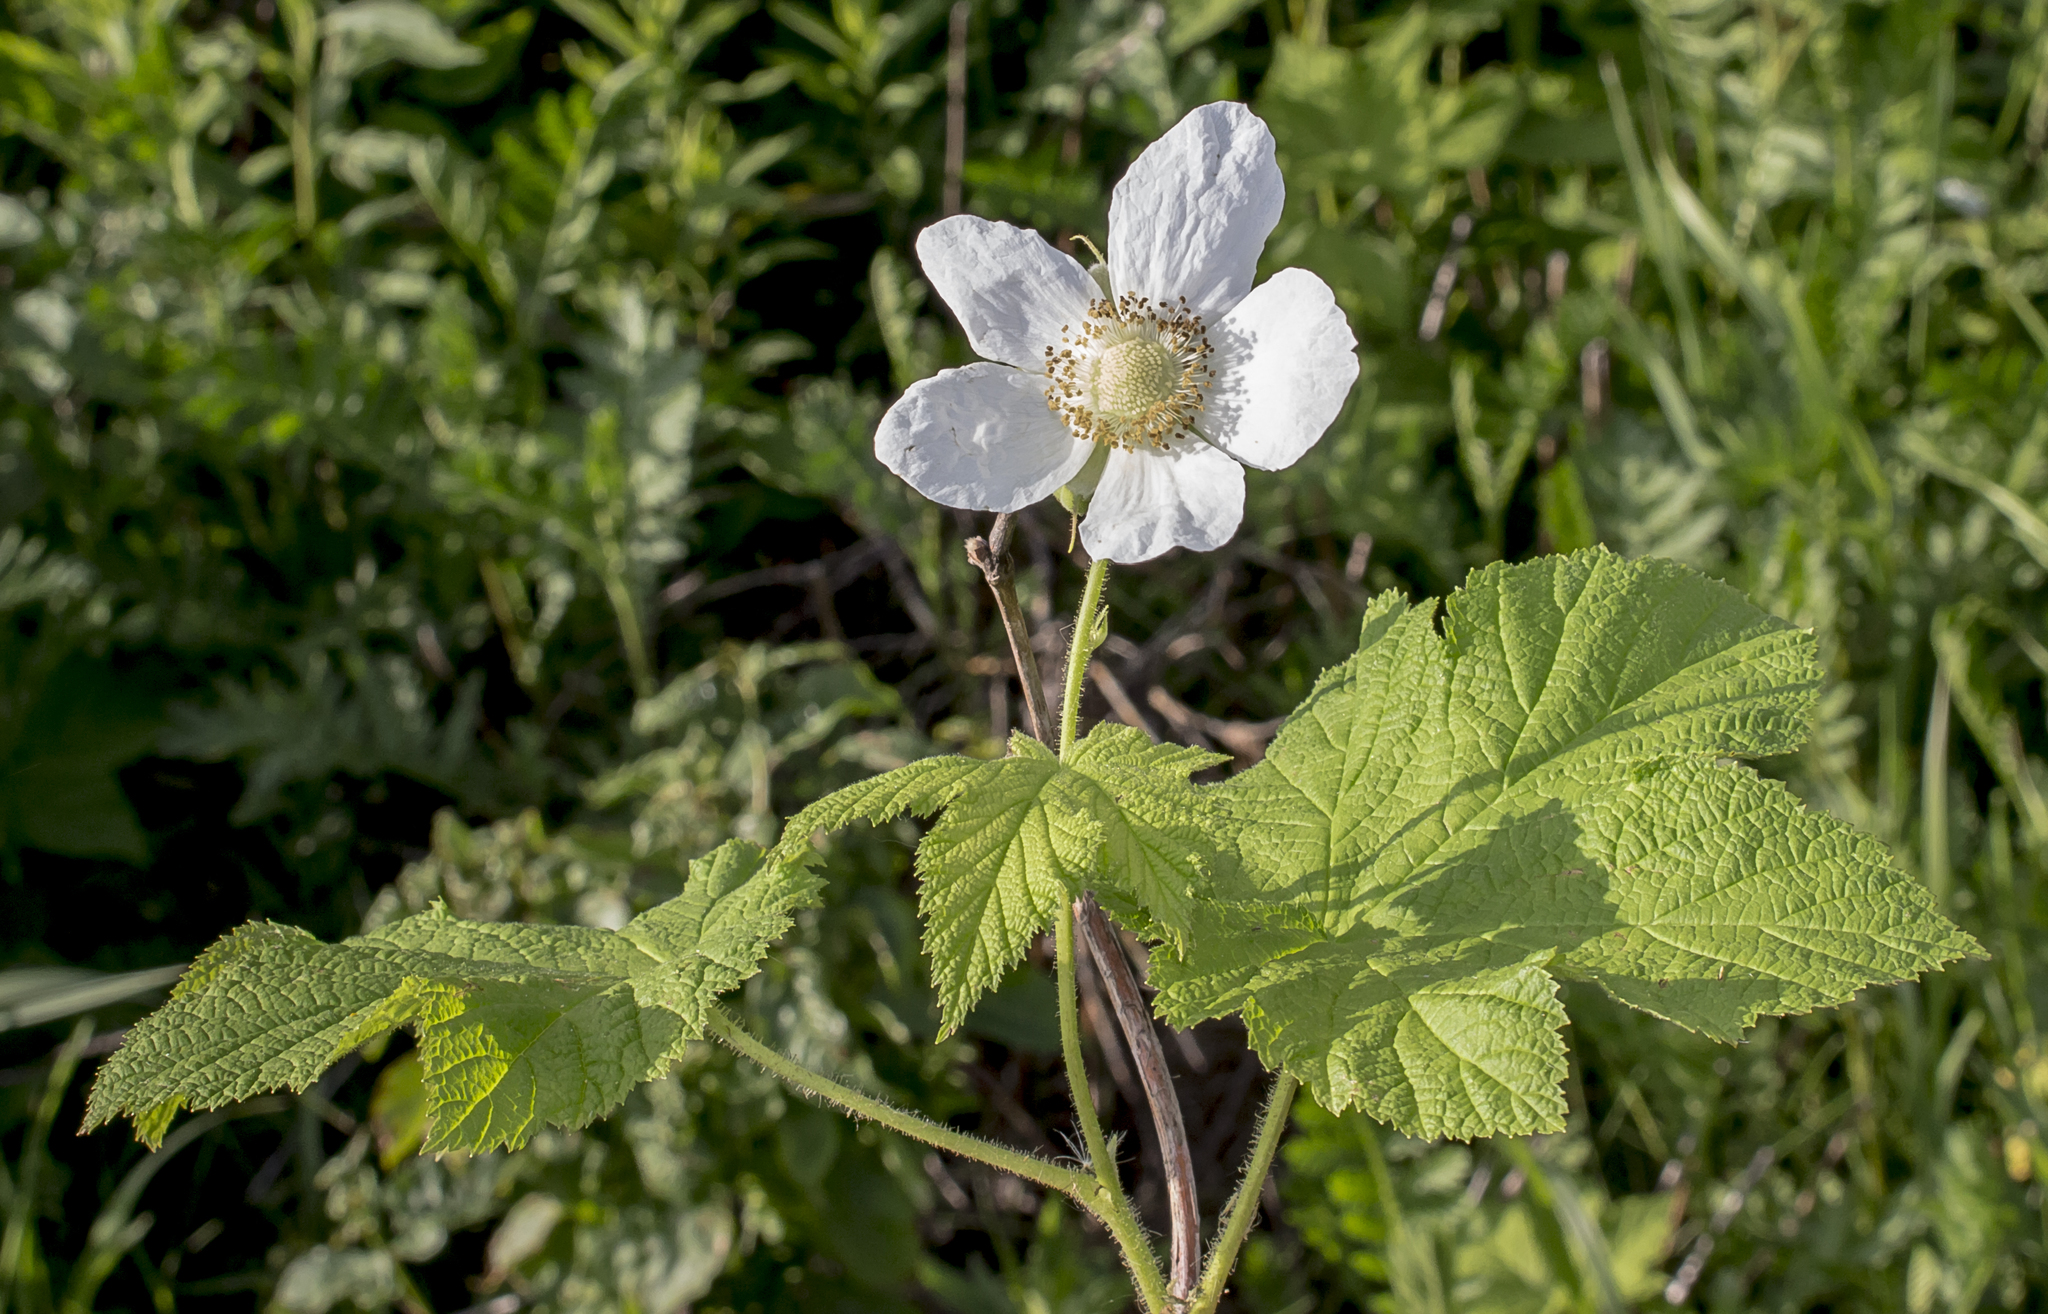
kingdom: Plantae
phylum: Tracheophyta
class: Magnoliopsida
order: Rosales
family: Rosaceae
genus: Rubus
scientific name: Rubus parviflorus
